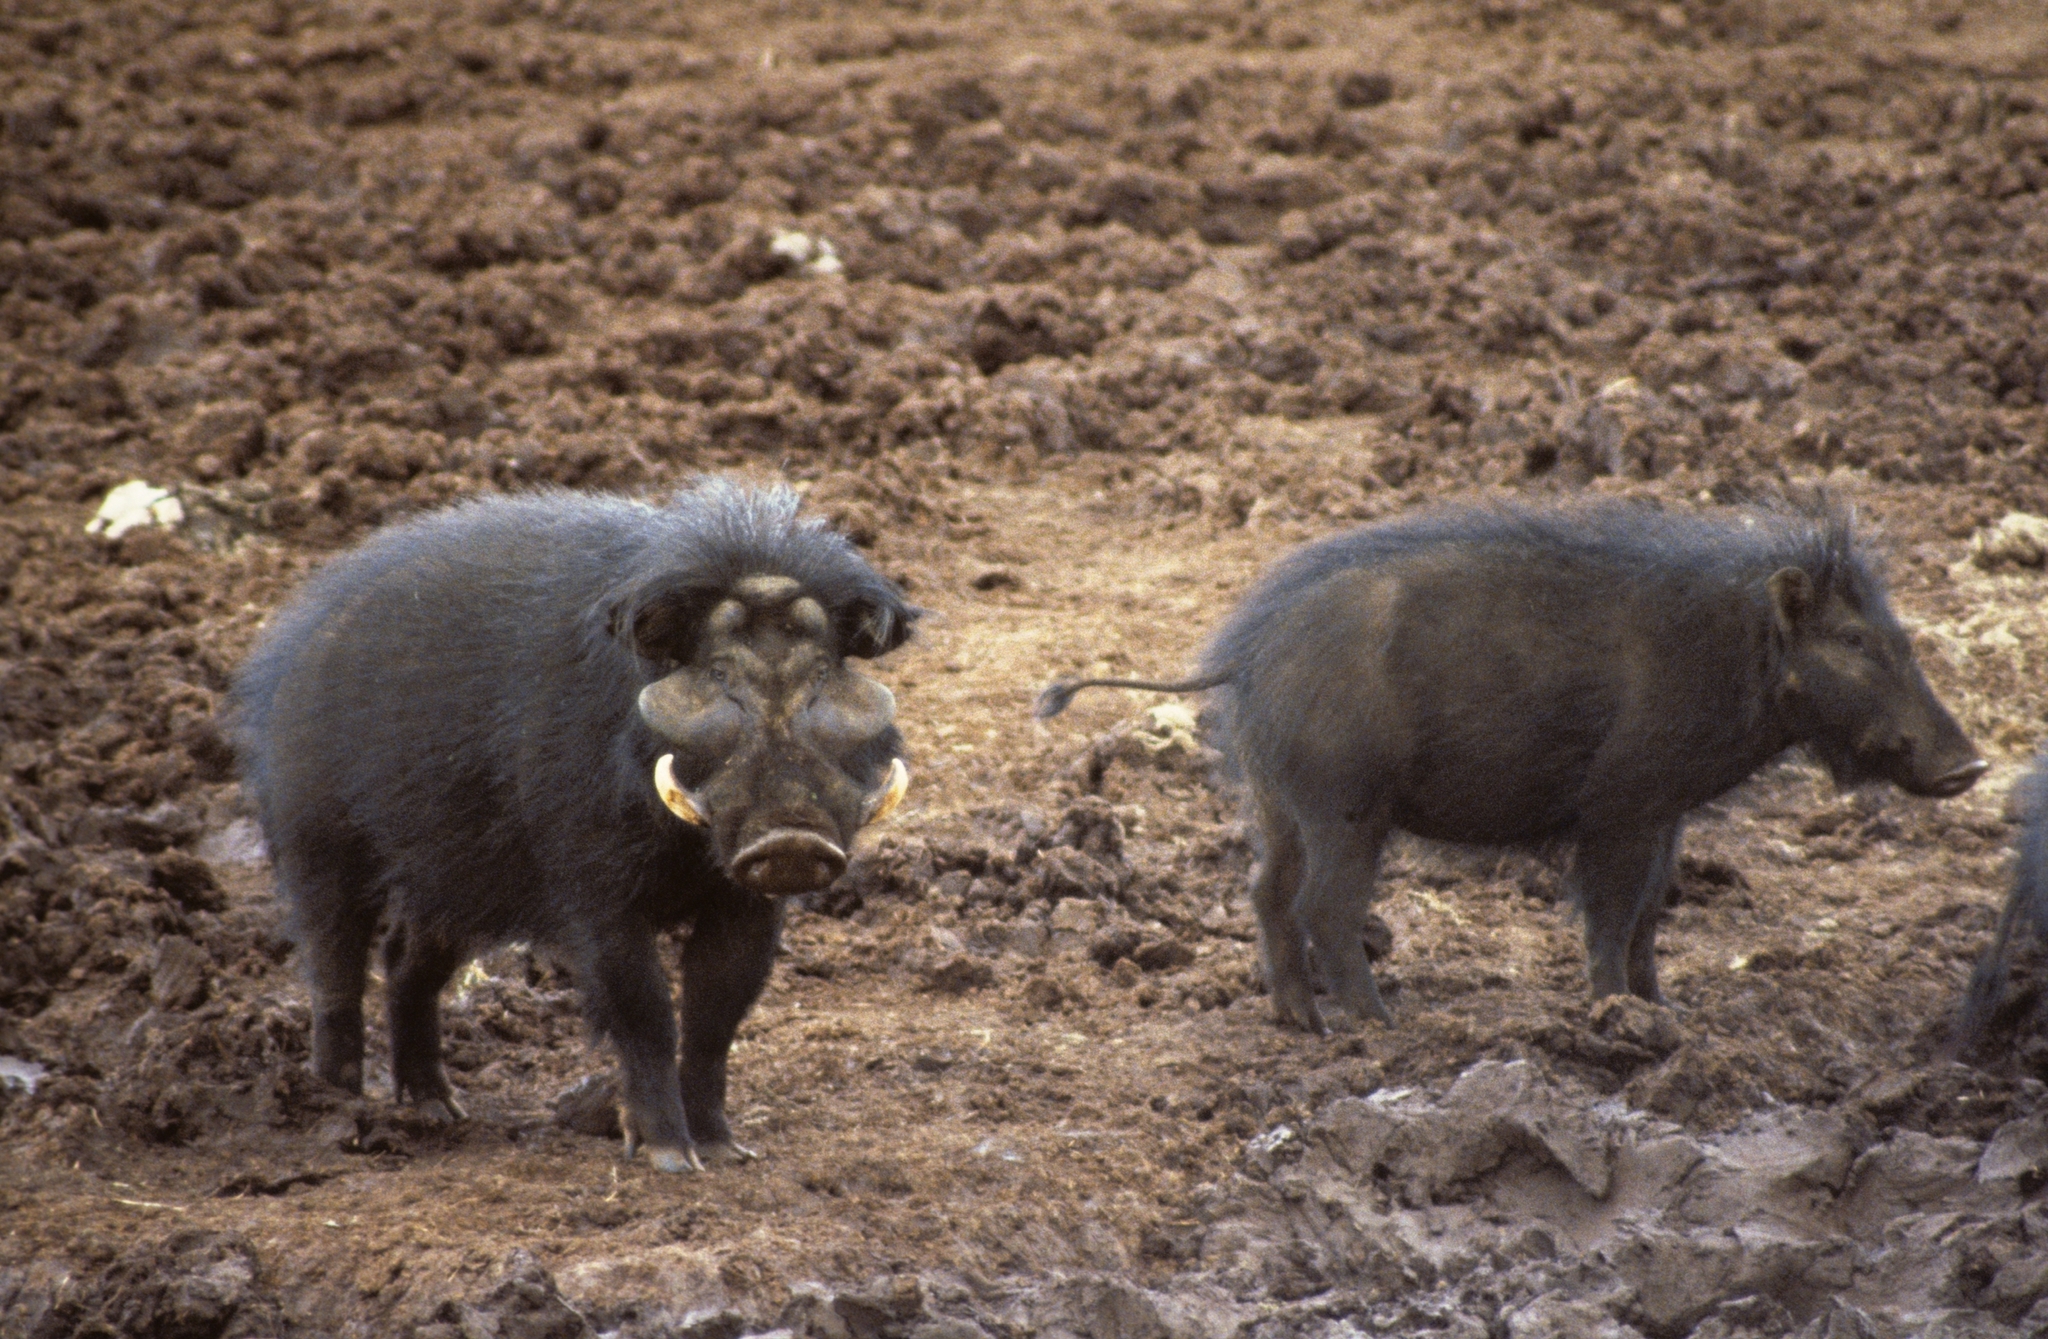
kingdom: Animalia
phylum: Chordata
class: Mammalia
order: Artiodactyla
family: Suidae
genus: Hylochoerus
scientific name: Hylochoerus meinertzhageni
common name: Giant forest hog
